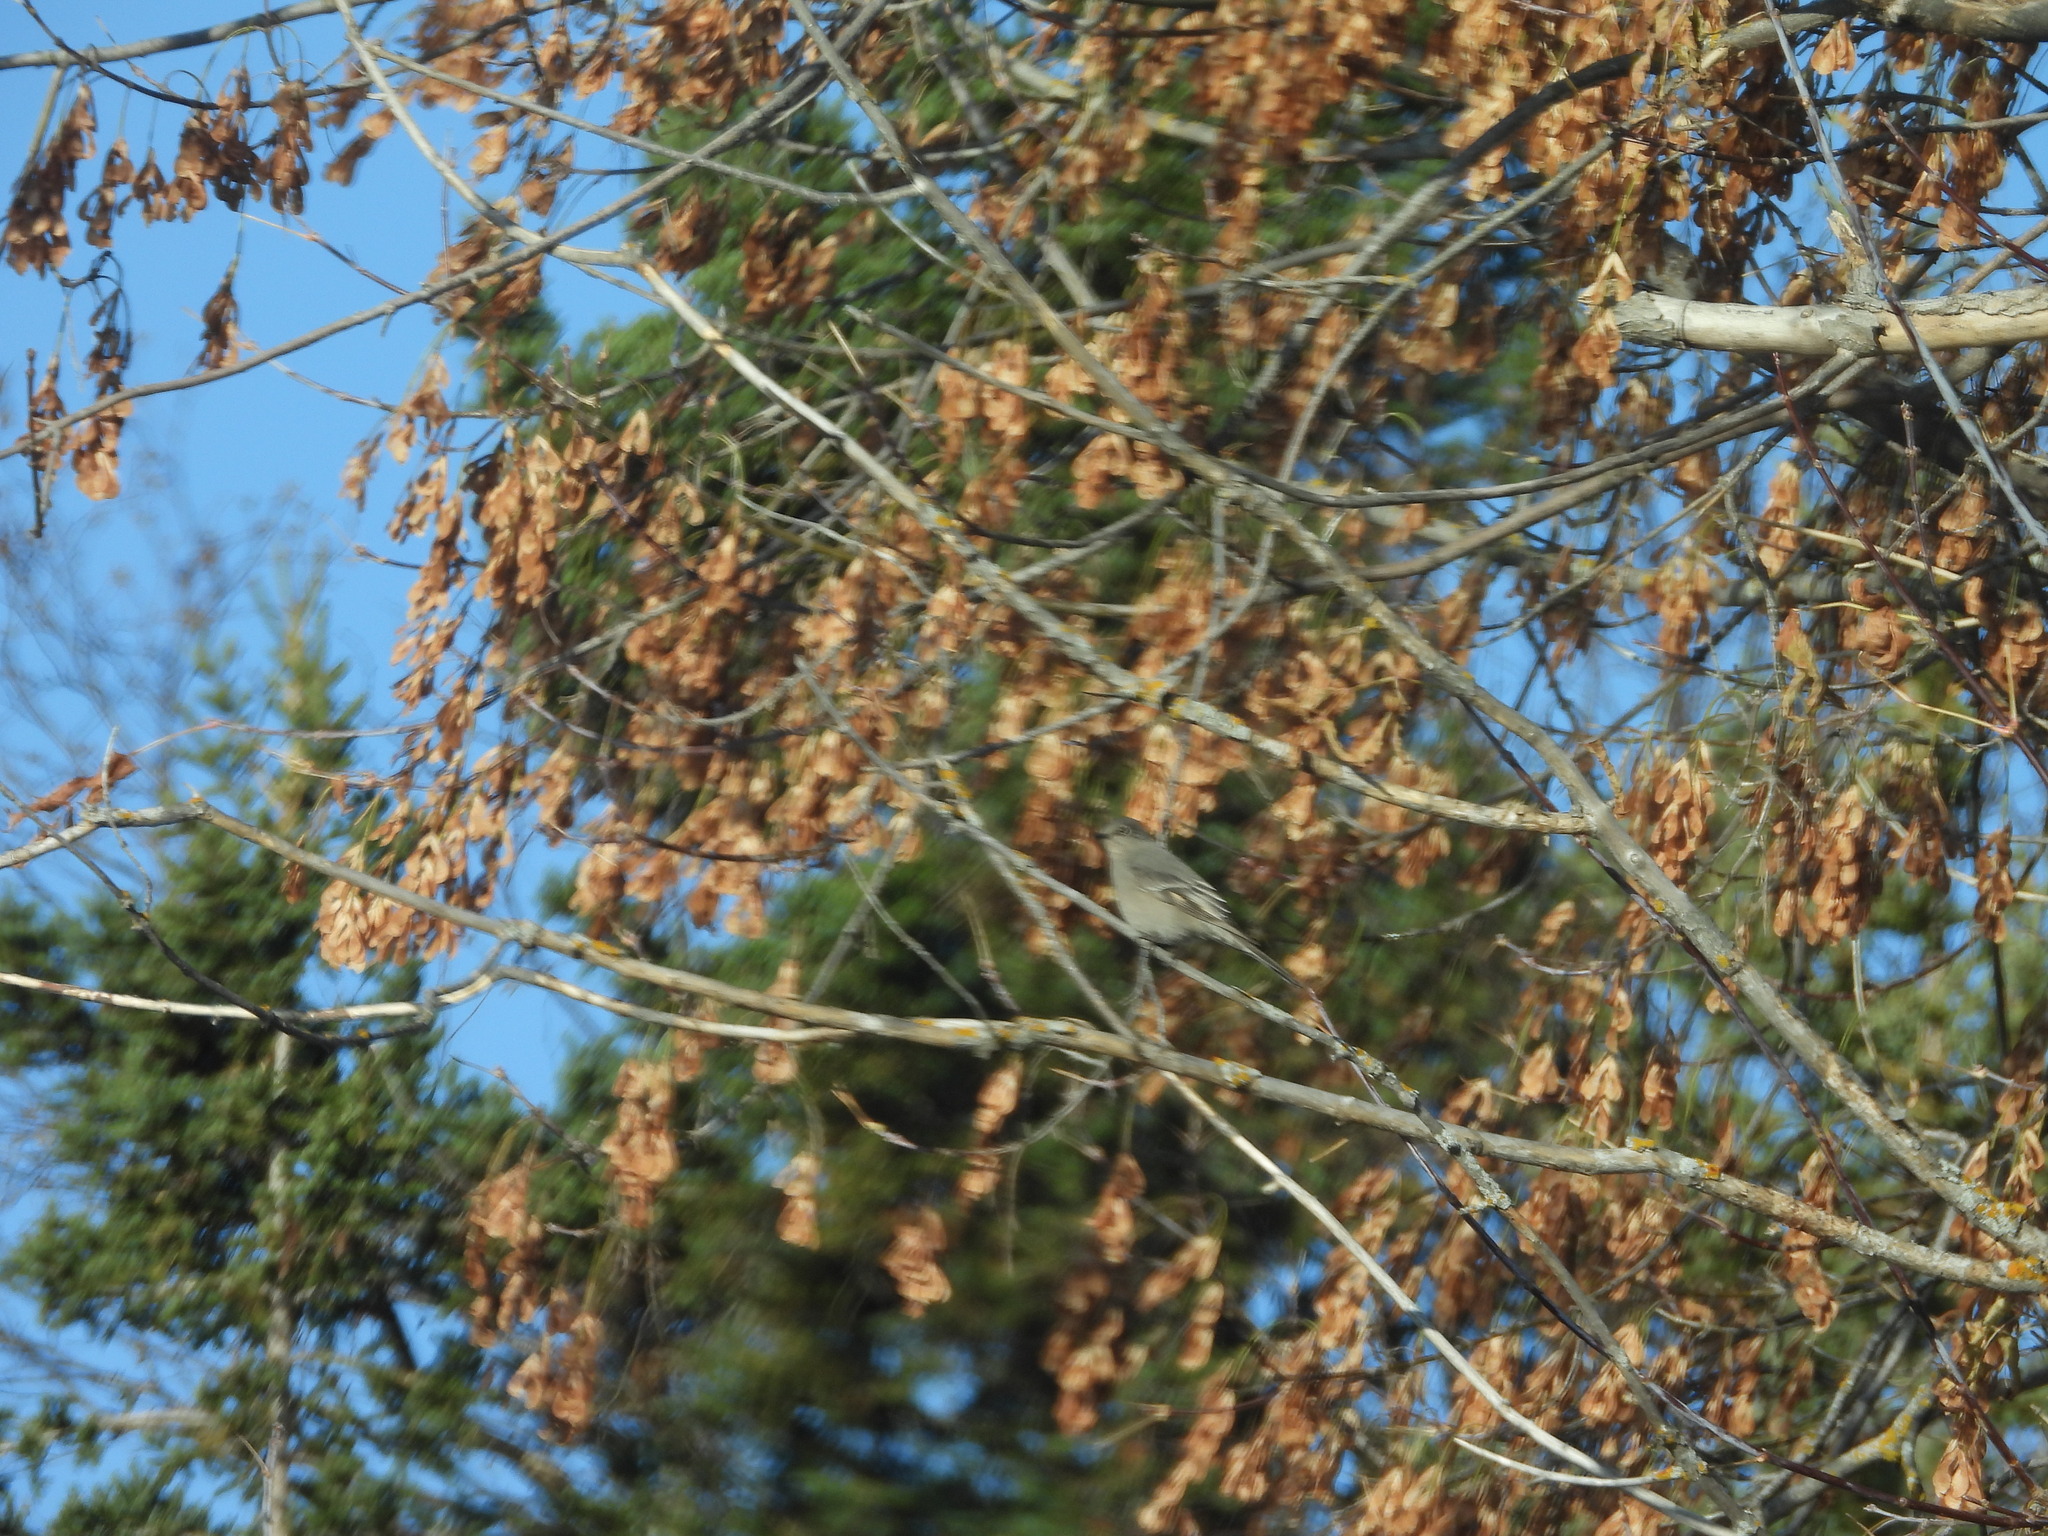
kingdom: Animalia
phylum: Chordata
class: Aves
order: Passeriformes
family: Turdidae
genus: Myadestes
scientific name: Myadestes townsendi
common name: Townsend's solitaire
